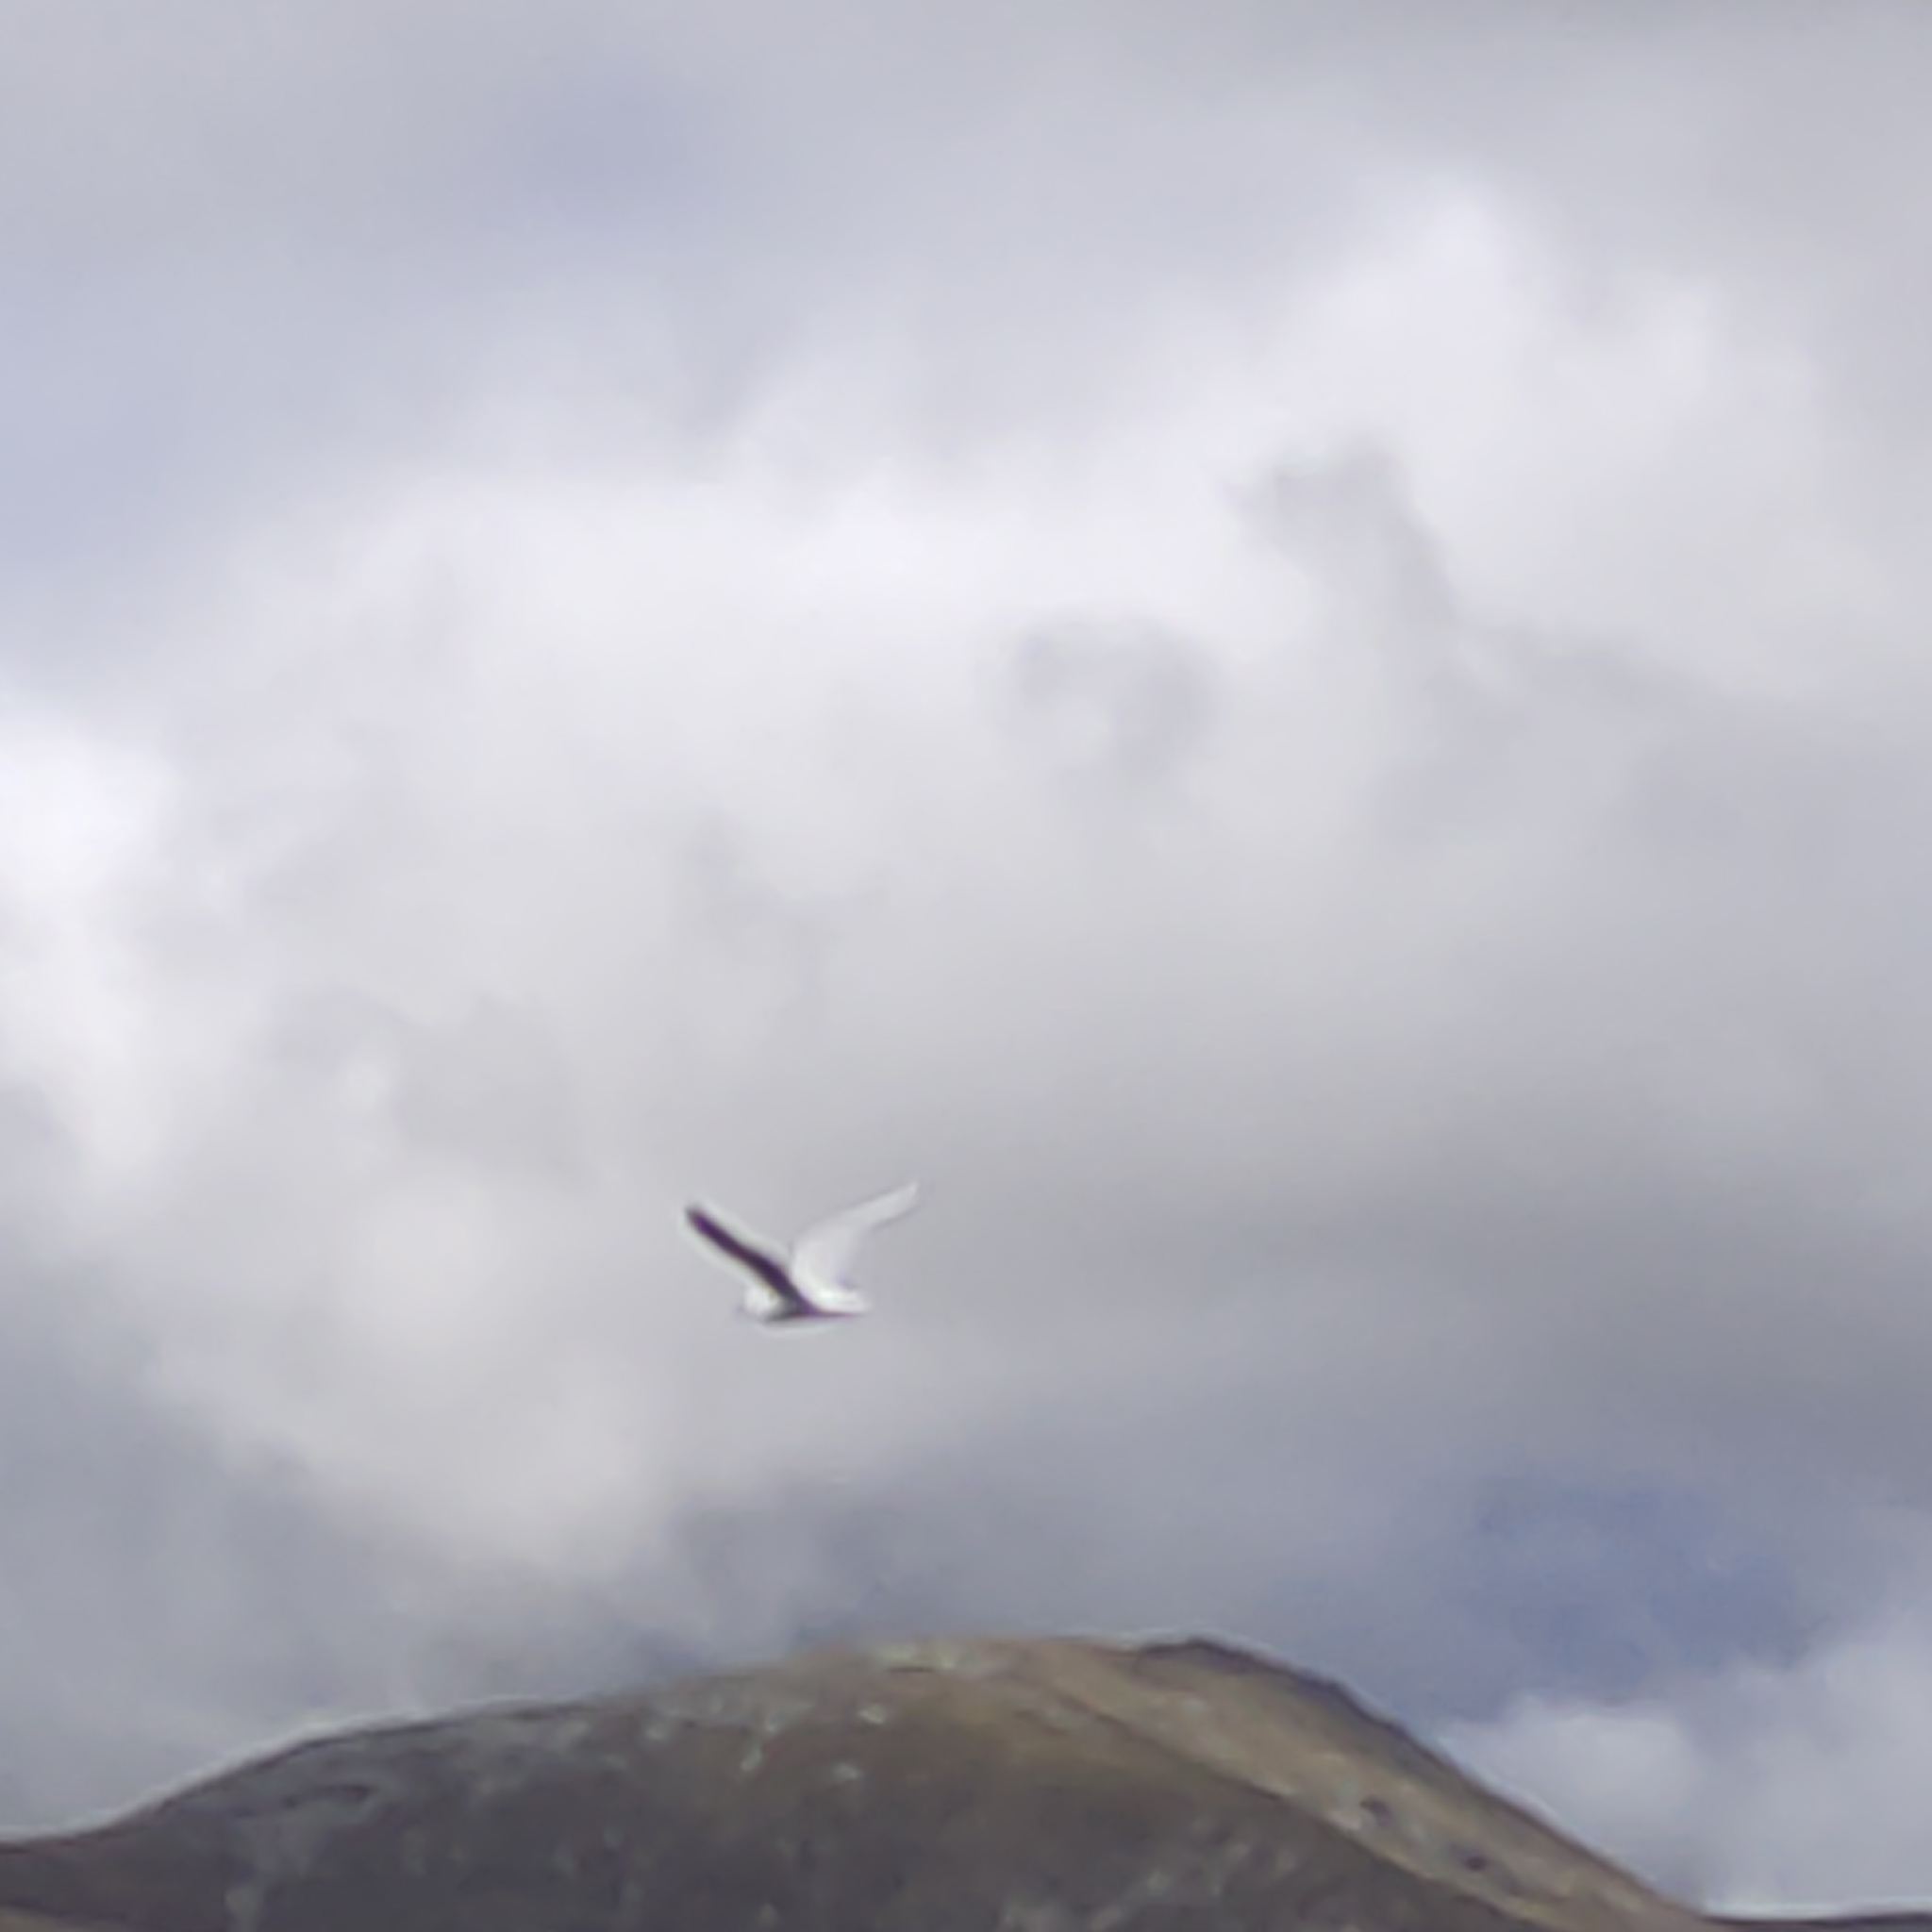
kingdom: Animalia
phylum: Chordata
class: Aves
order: Charadriiformes
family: Laridae
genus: Chroicocephalus
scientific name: Chroicocephalus novaehollandiae
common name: Silver gull
